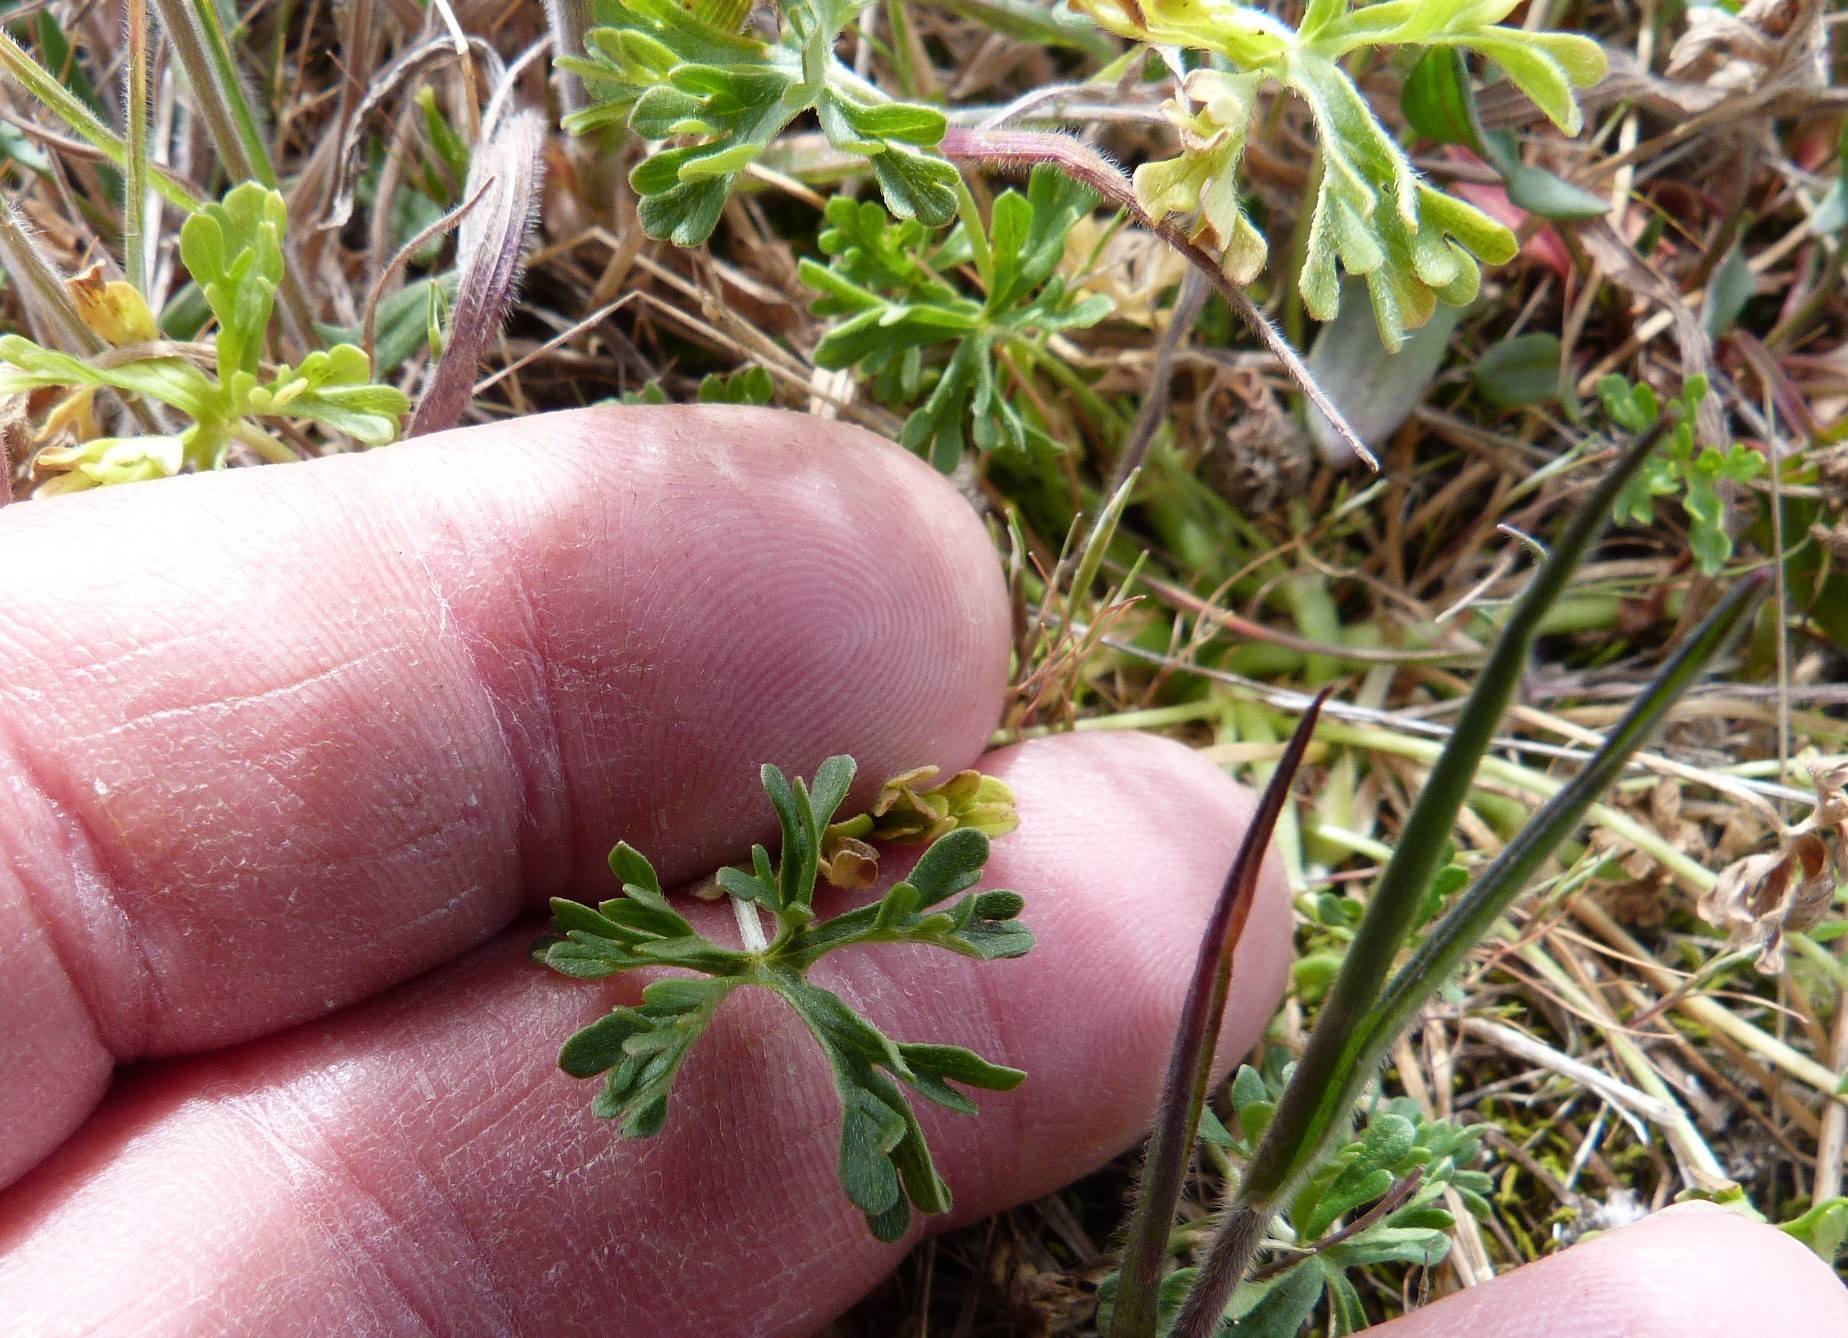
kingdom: Plantae
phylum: Tracheophyta
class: Magnoliopsida
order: Geraniales
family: Geraniaceae
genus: Geranium
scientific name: Geranium retrorsum
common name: New zealand geranium
